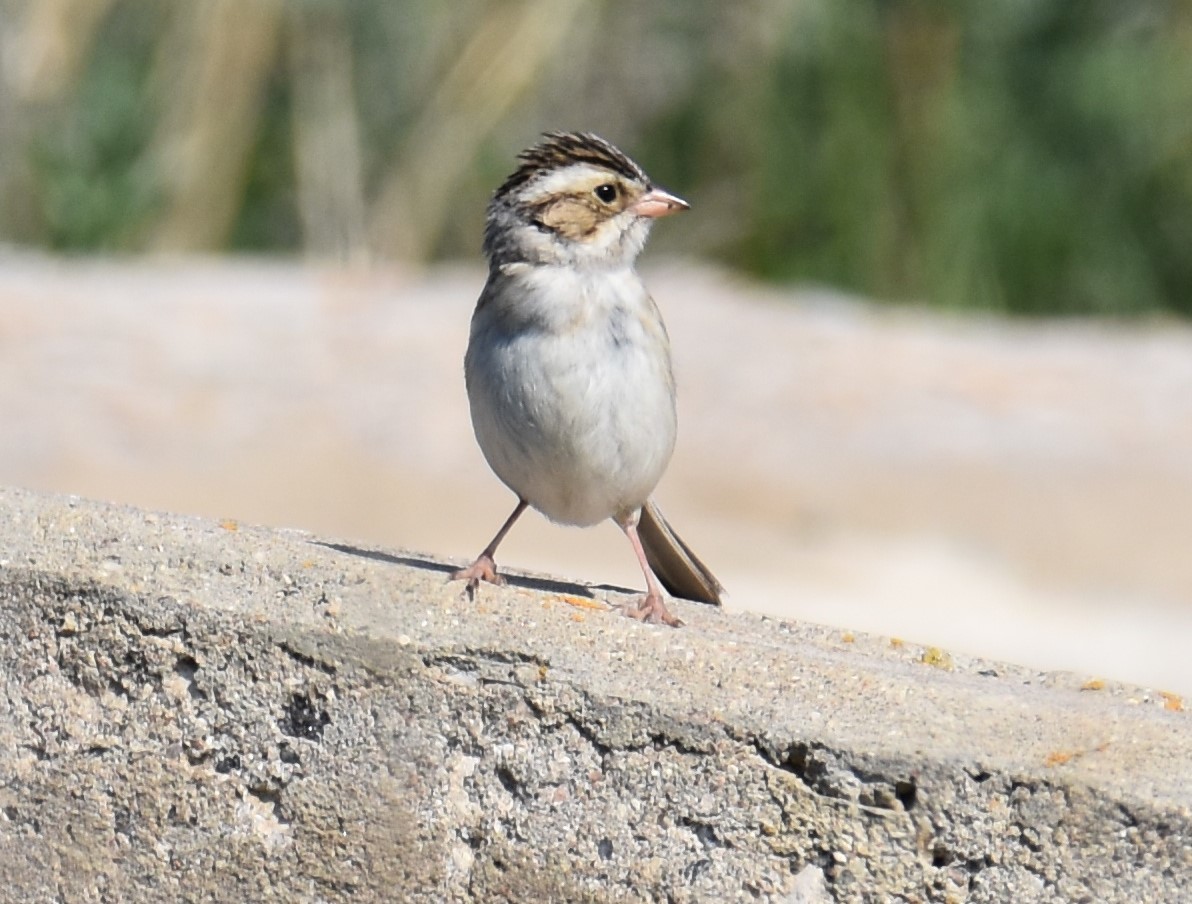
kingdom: Animalia
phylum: Chordata
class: Aves
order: Passeriformes
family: Passerellidae
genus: Spizella
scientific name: Spizella pallida
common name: Clay-colored sparrow
